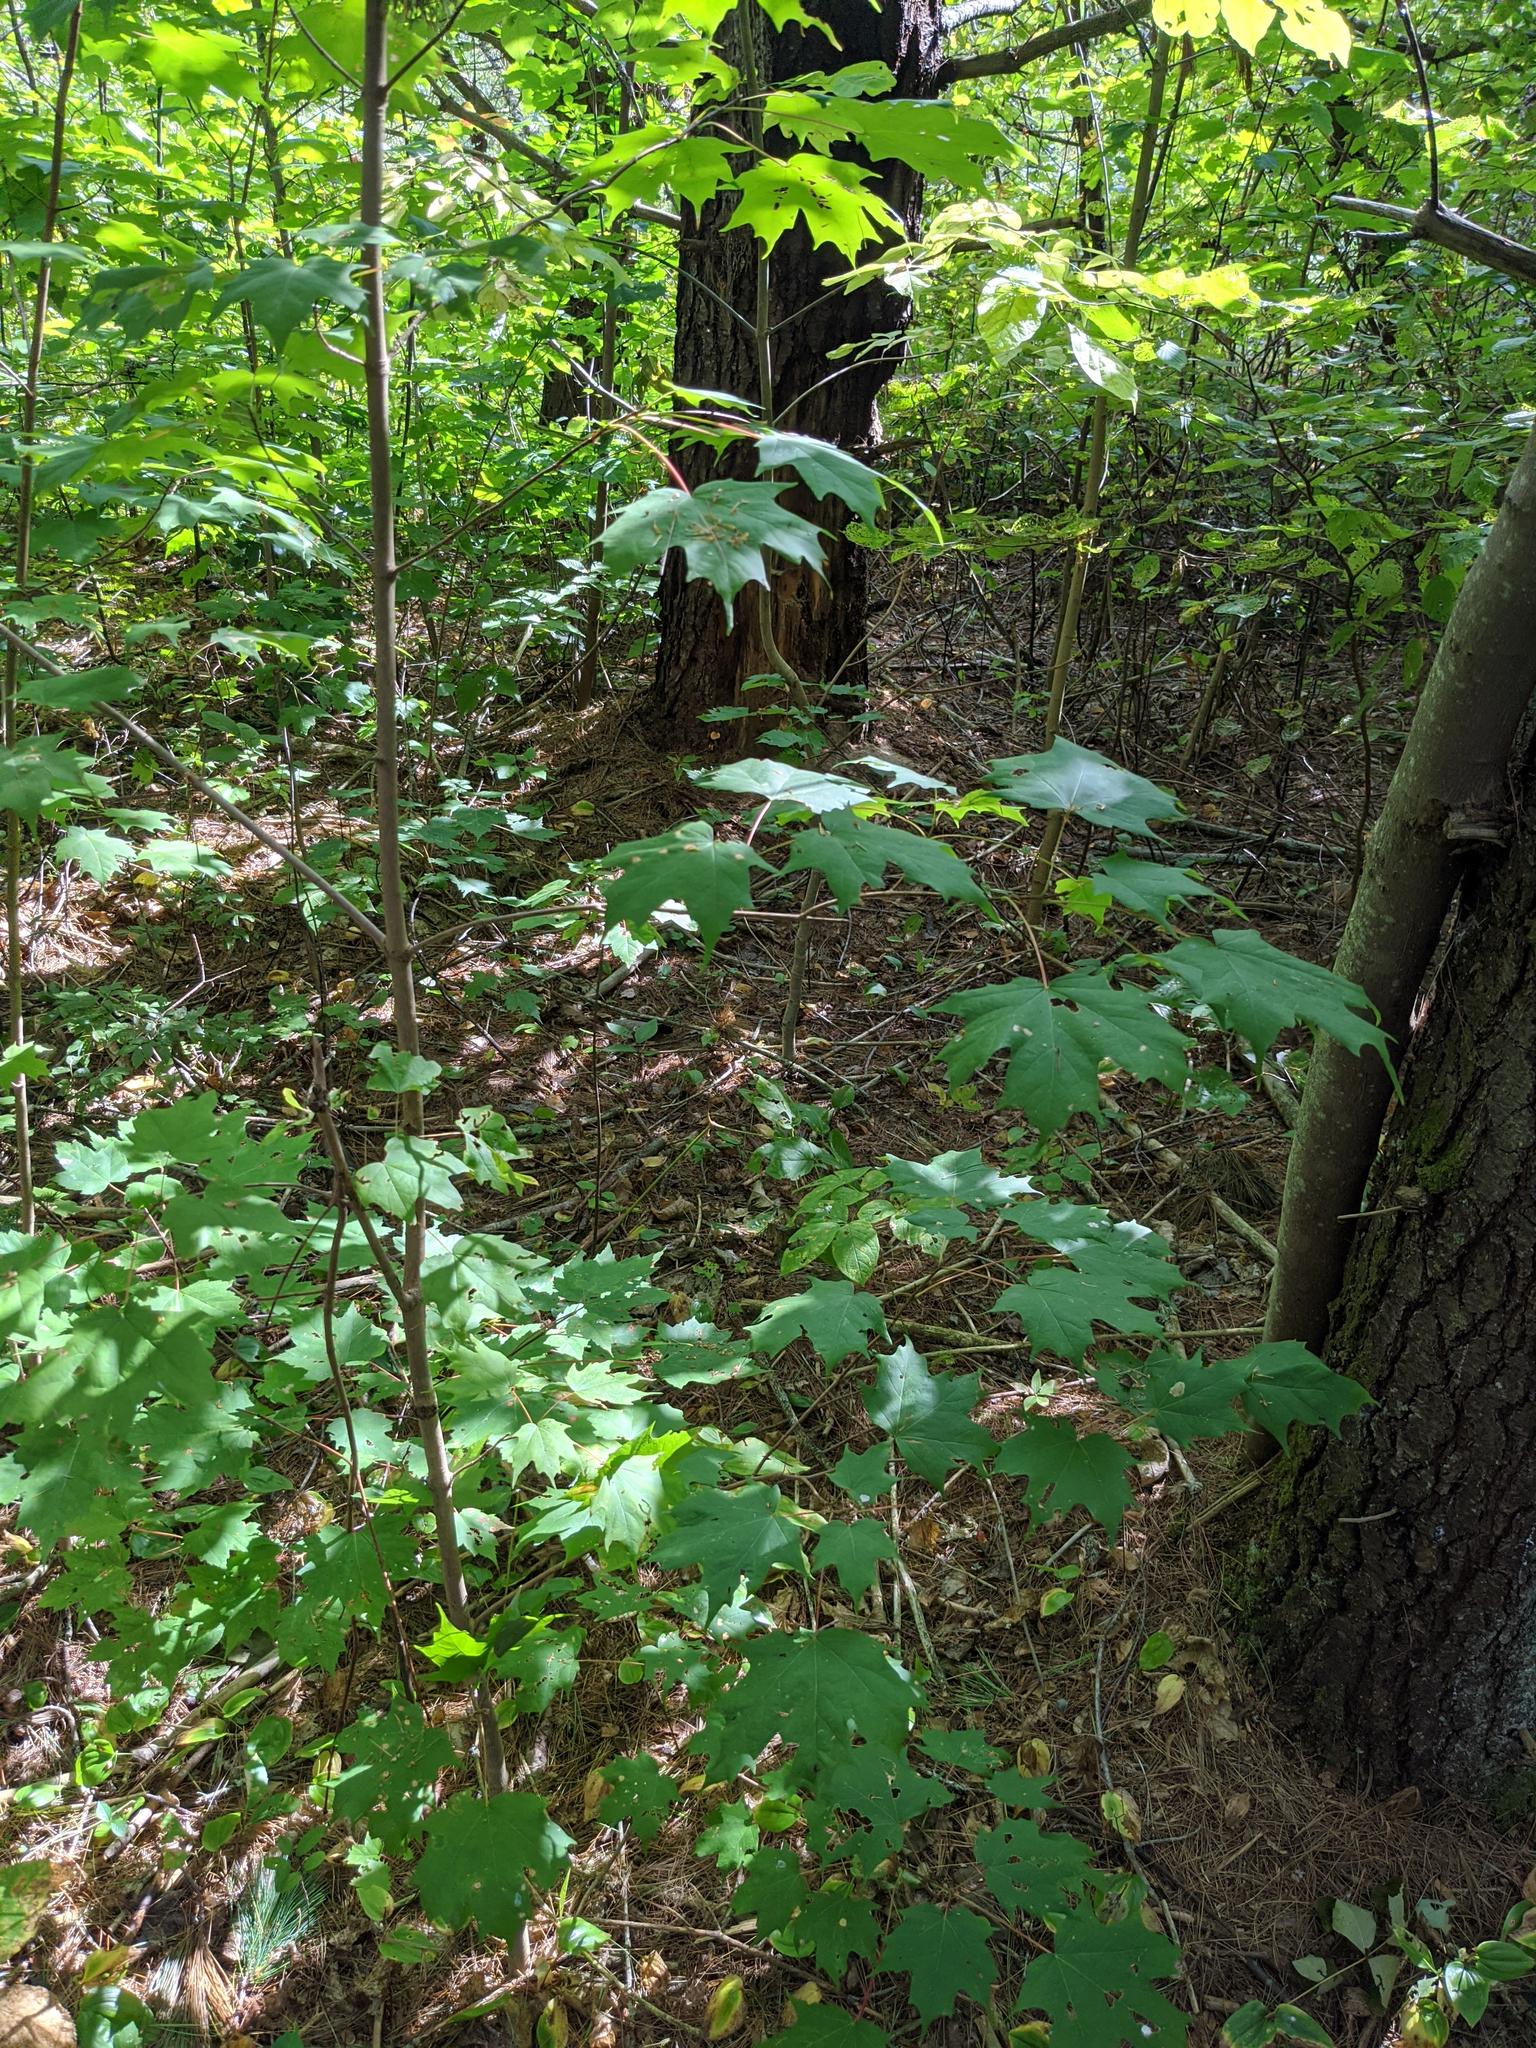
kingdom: Plantae
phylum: Tracheophyta
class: Magnoliopsida
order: Sapindales
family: Sapindaceae
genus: Acer
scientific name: Acer saccharum
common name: Sugar maple
